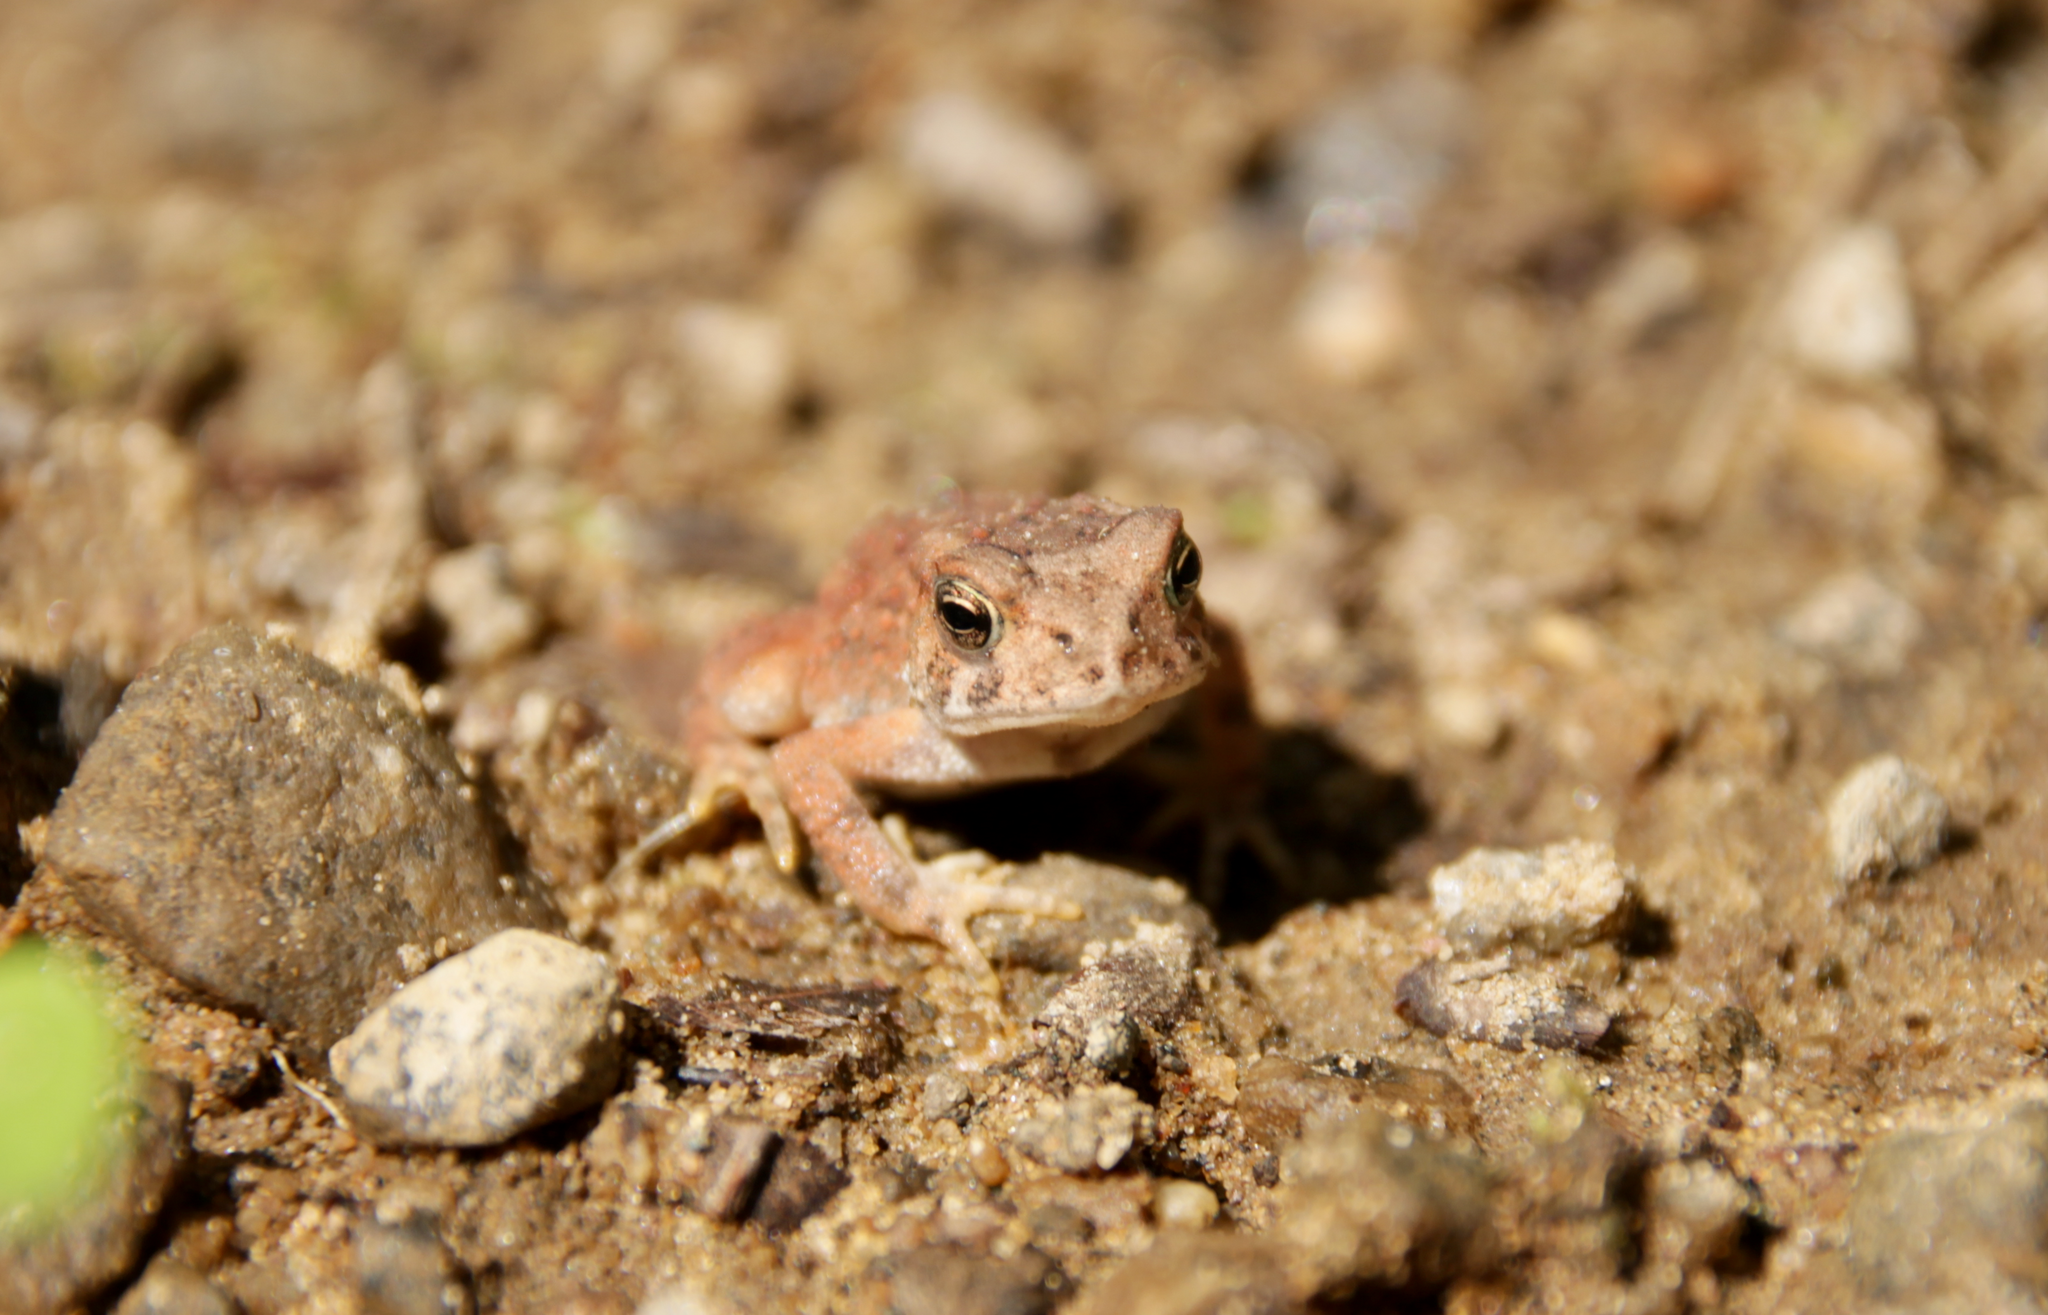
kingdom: Animalia
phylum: Chordata
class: Amphibia
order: Anura
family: Bufonidae
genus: Anaxyrus
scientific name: Anaxyrus americanus
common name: American toad
